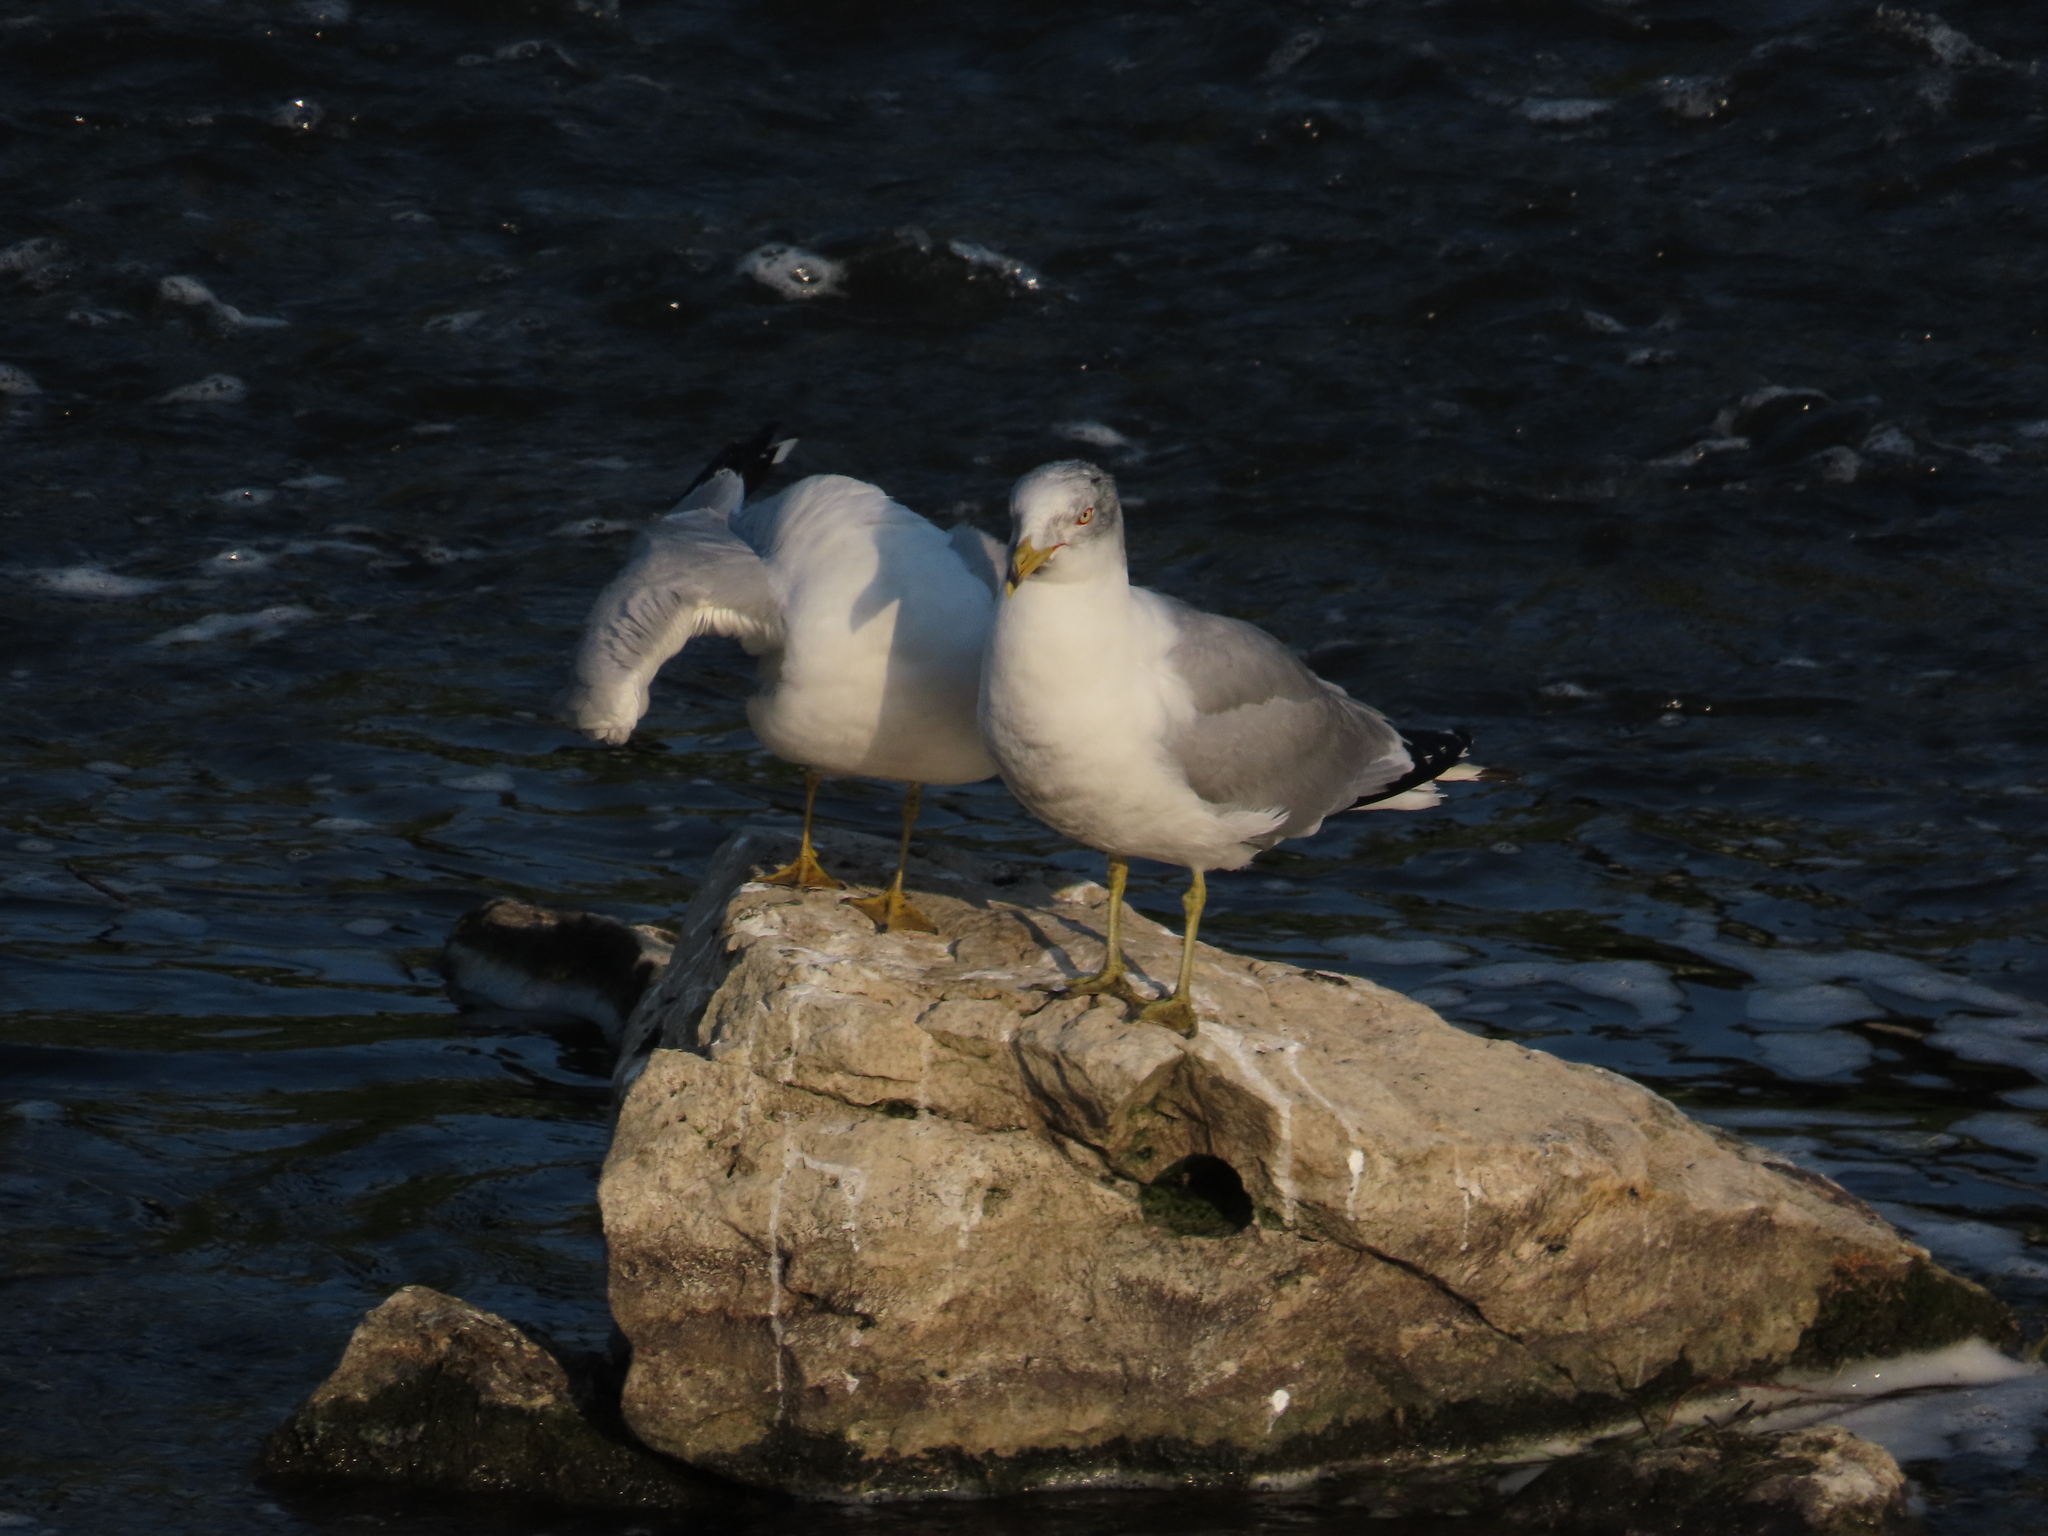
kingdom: Animalia
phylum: Chordata
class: Aves
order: Charadriiformes
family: Laridae
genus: Larus
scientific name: Larus delawarensis
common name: Ring-billed gull
